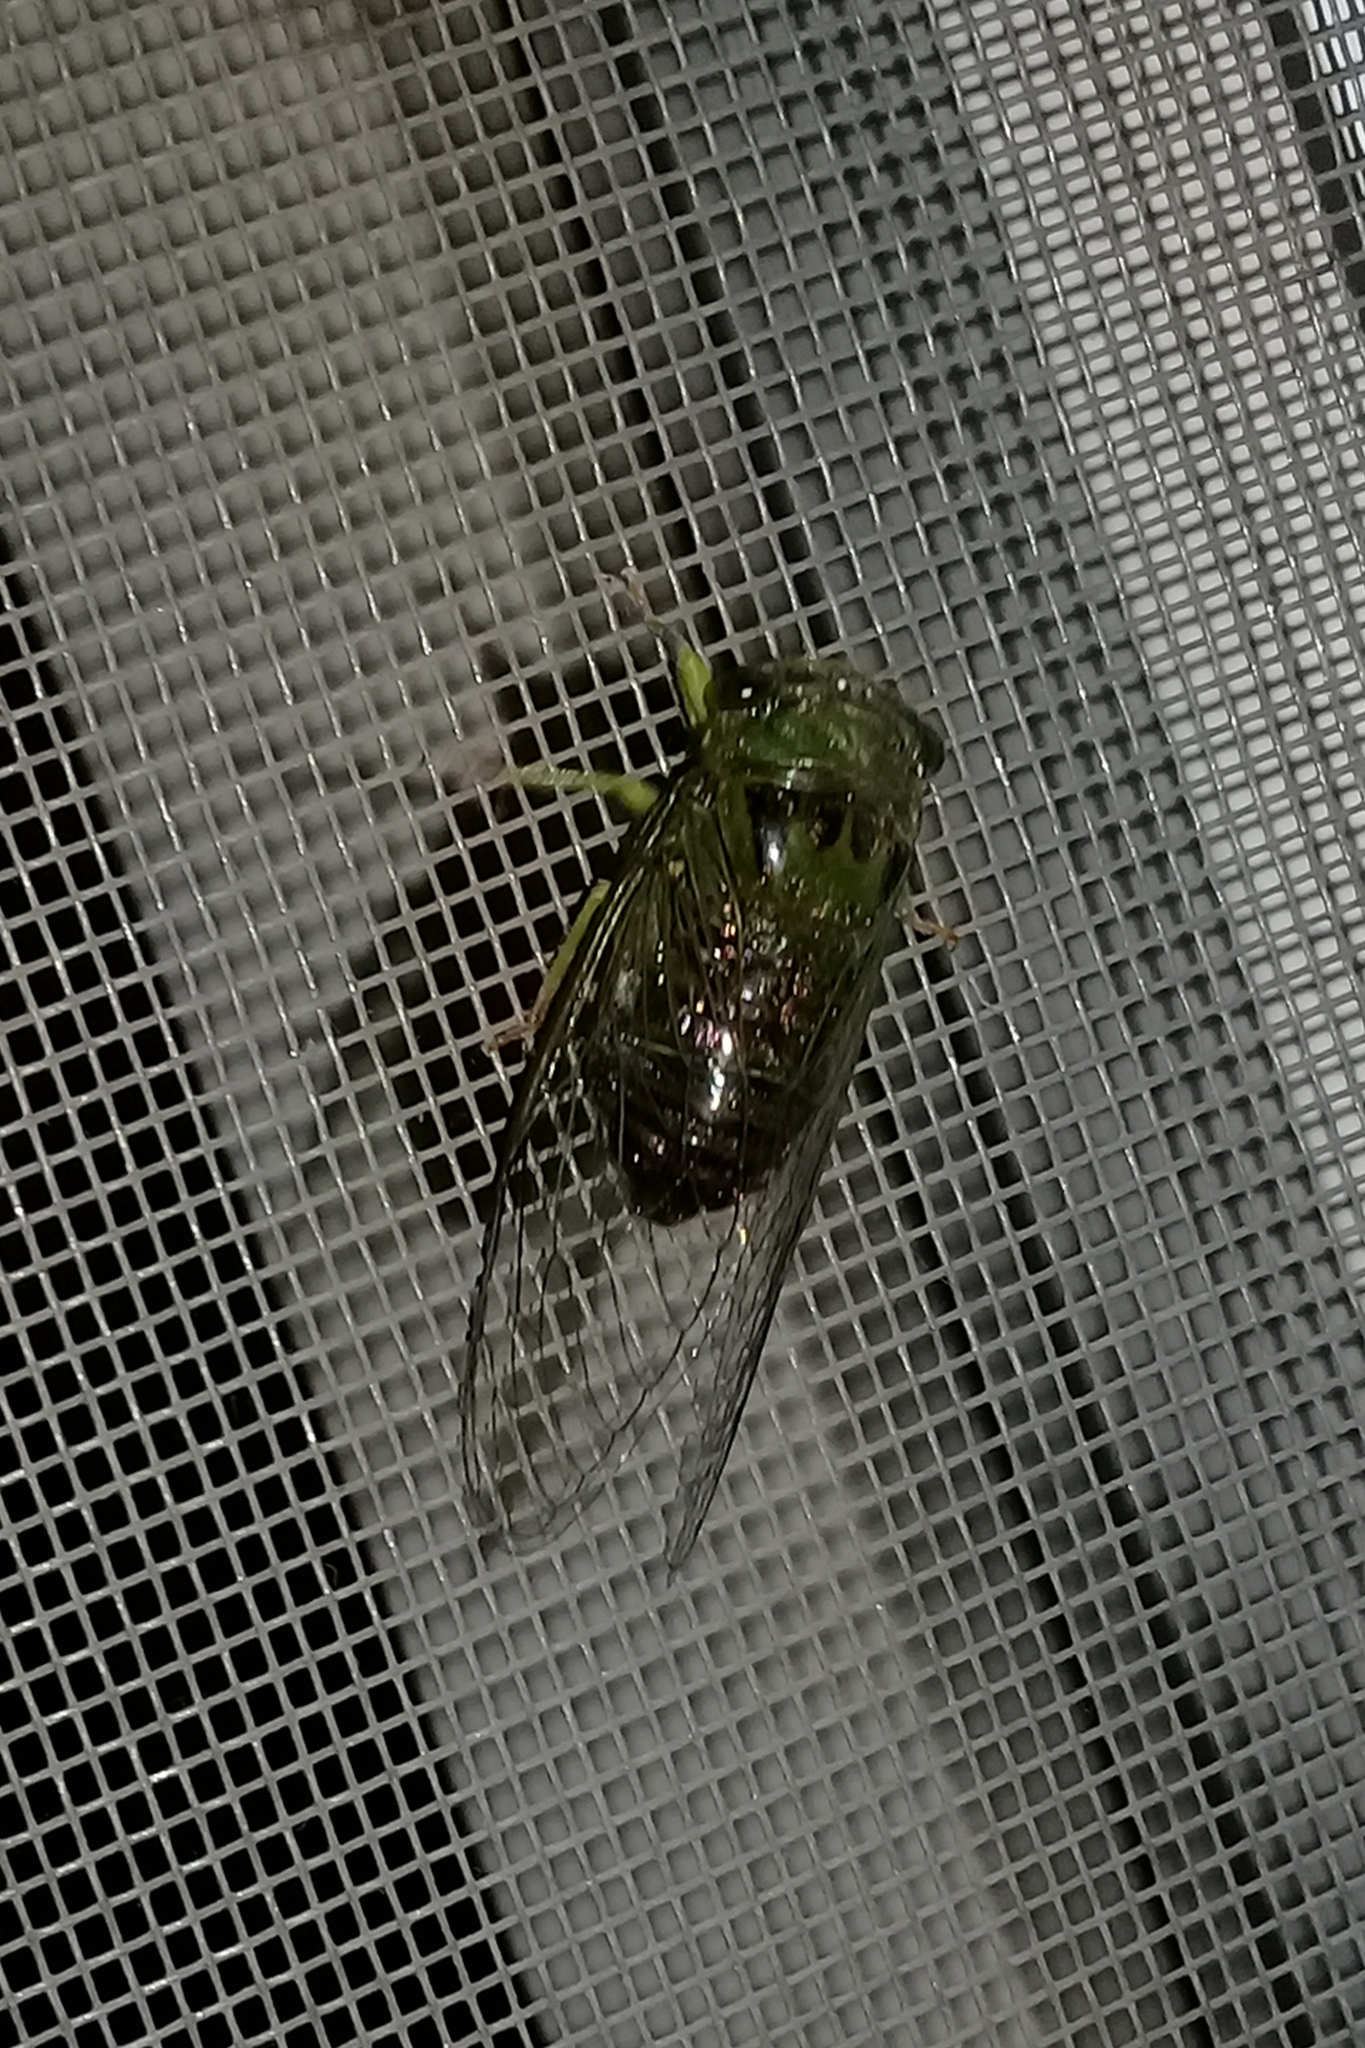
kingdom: Animalia
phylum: Arthropoda
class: Insecta
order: Hemiptera
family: Cicadidae
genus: Acanthoventris
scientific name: Acanthoventris drewseni
